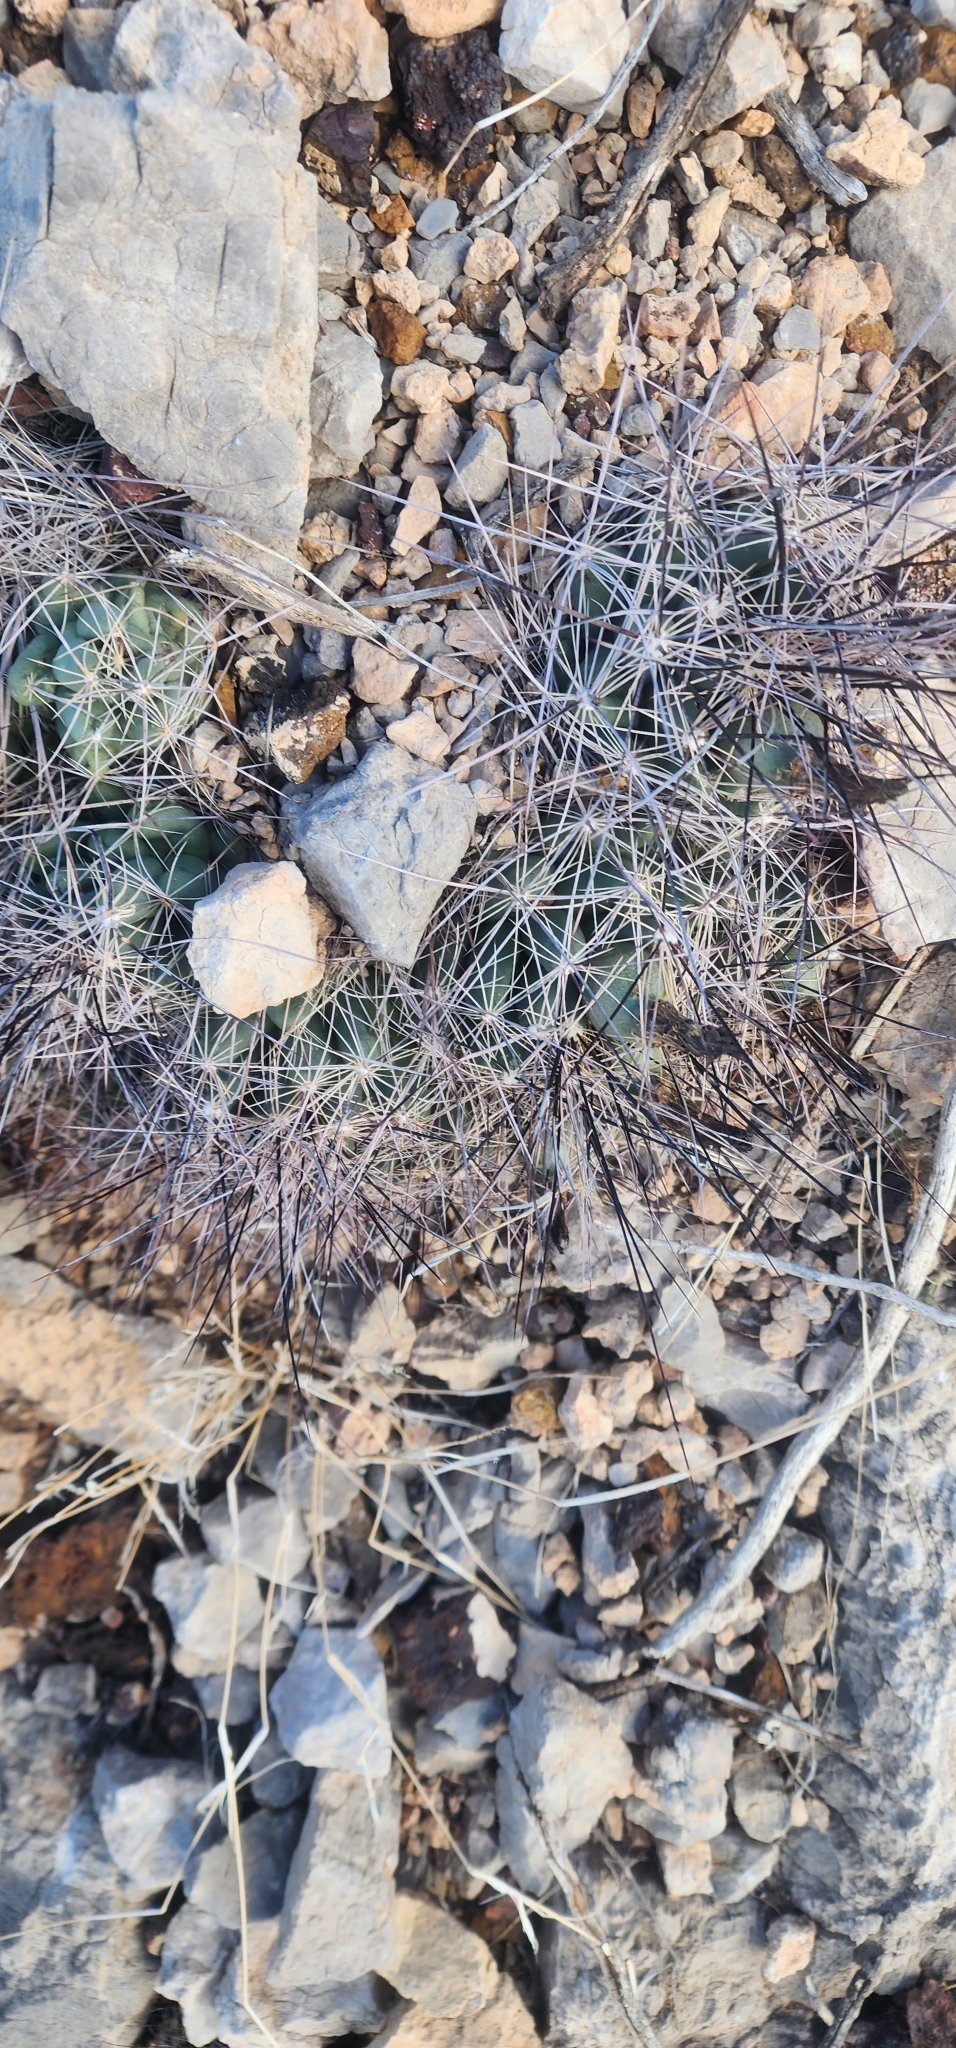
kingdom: Plantae
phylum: Tracheophyta
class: Magnoliopsida
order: Caryophyllales
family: Cactaceae
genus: Coryphantha
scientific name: Coryphantha macromeris
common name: Nipple beehive cactus
